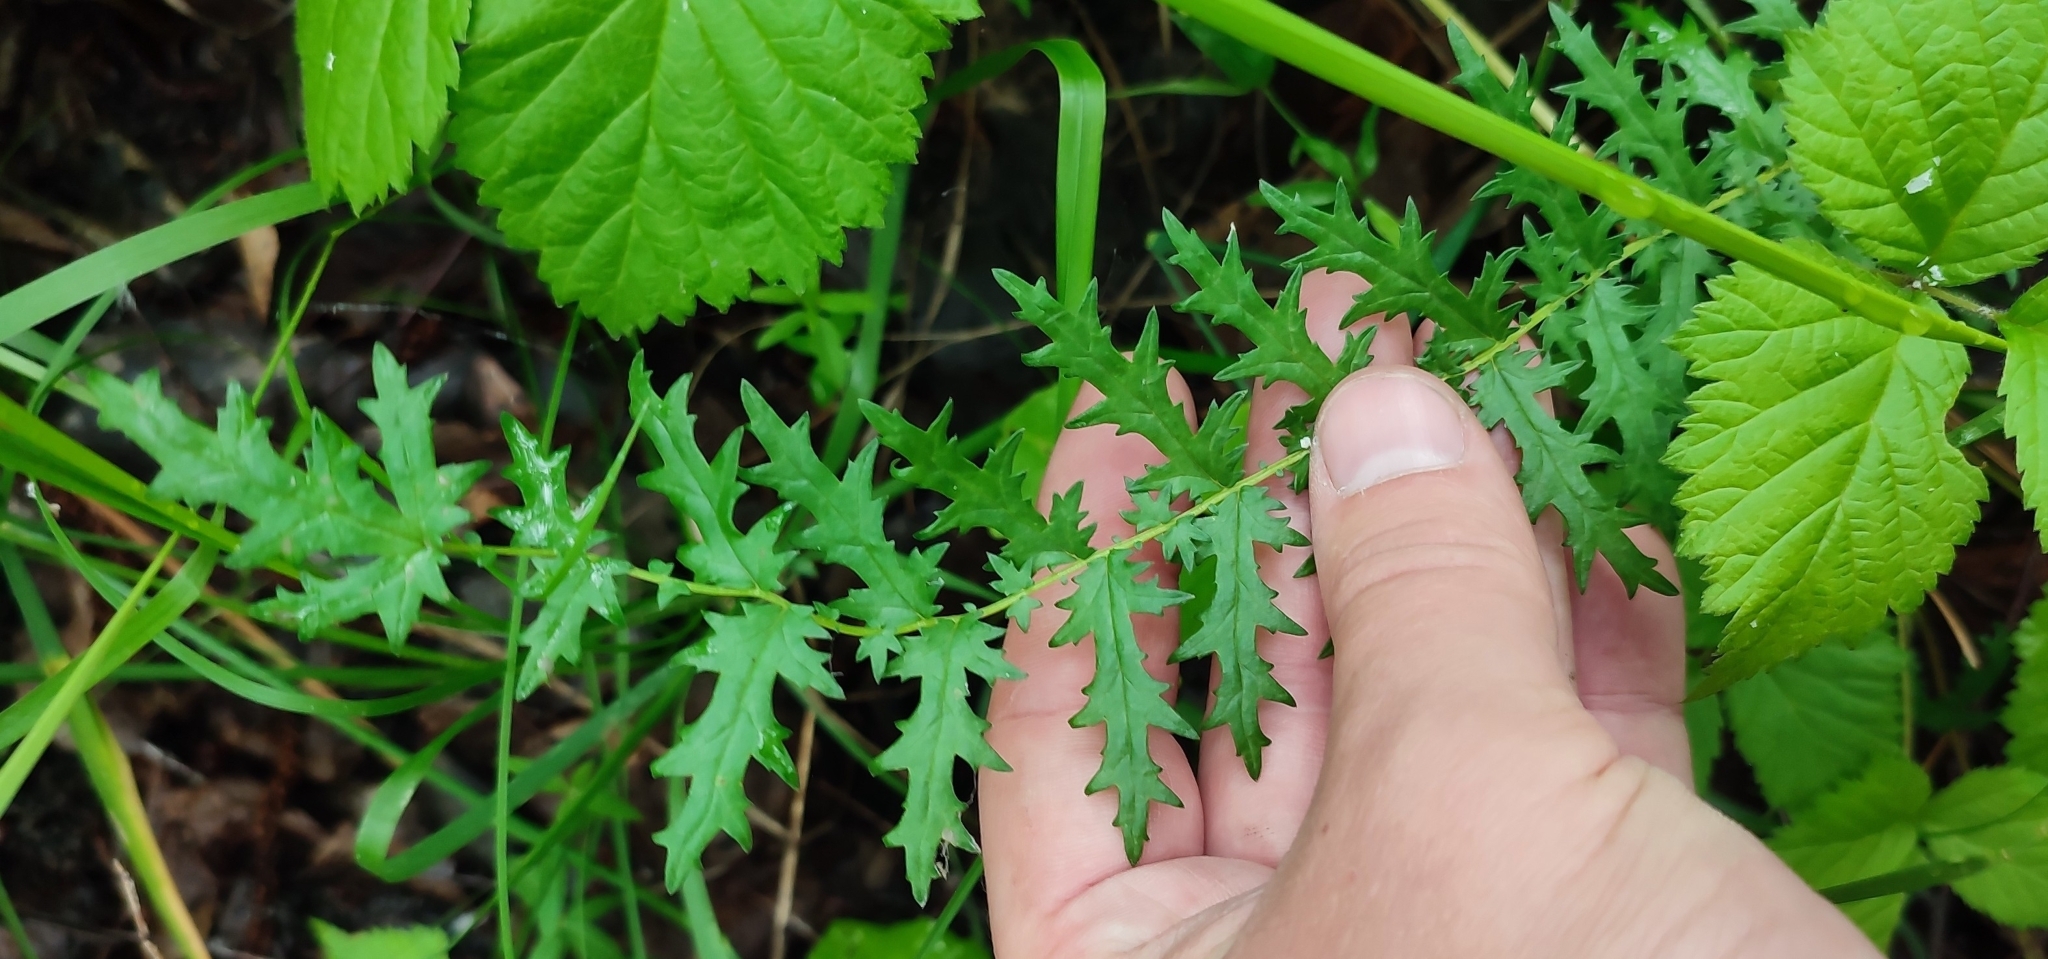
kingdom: Plantae
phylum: Tracheophyta
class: Magnoliopsida
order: Rosales
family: Rosaceae
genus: Filipendula
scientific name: Filipendula vulgaris
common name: Dropwort
